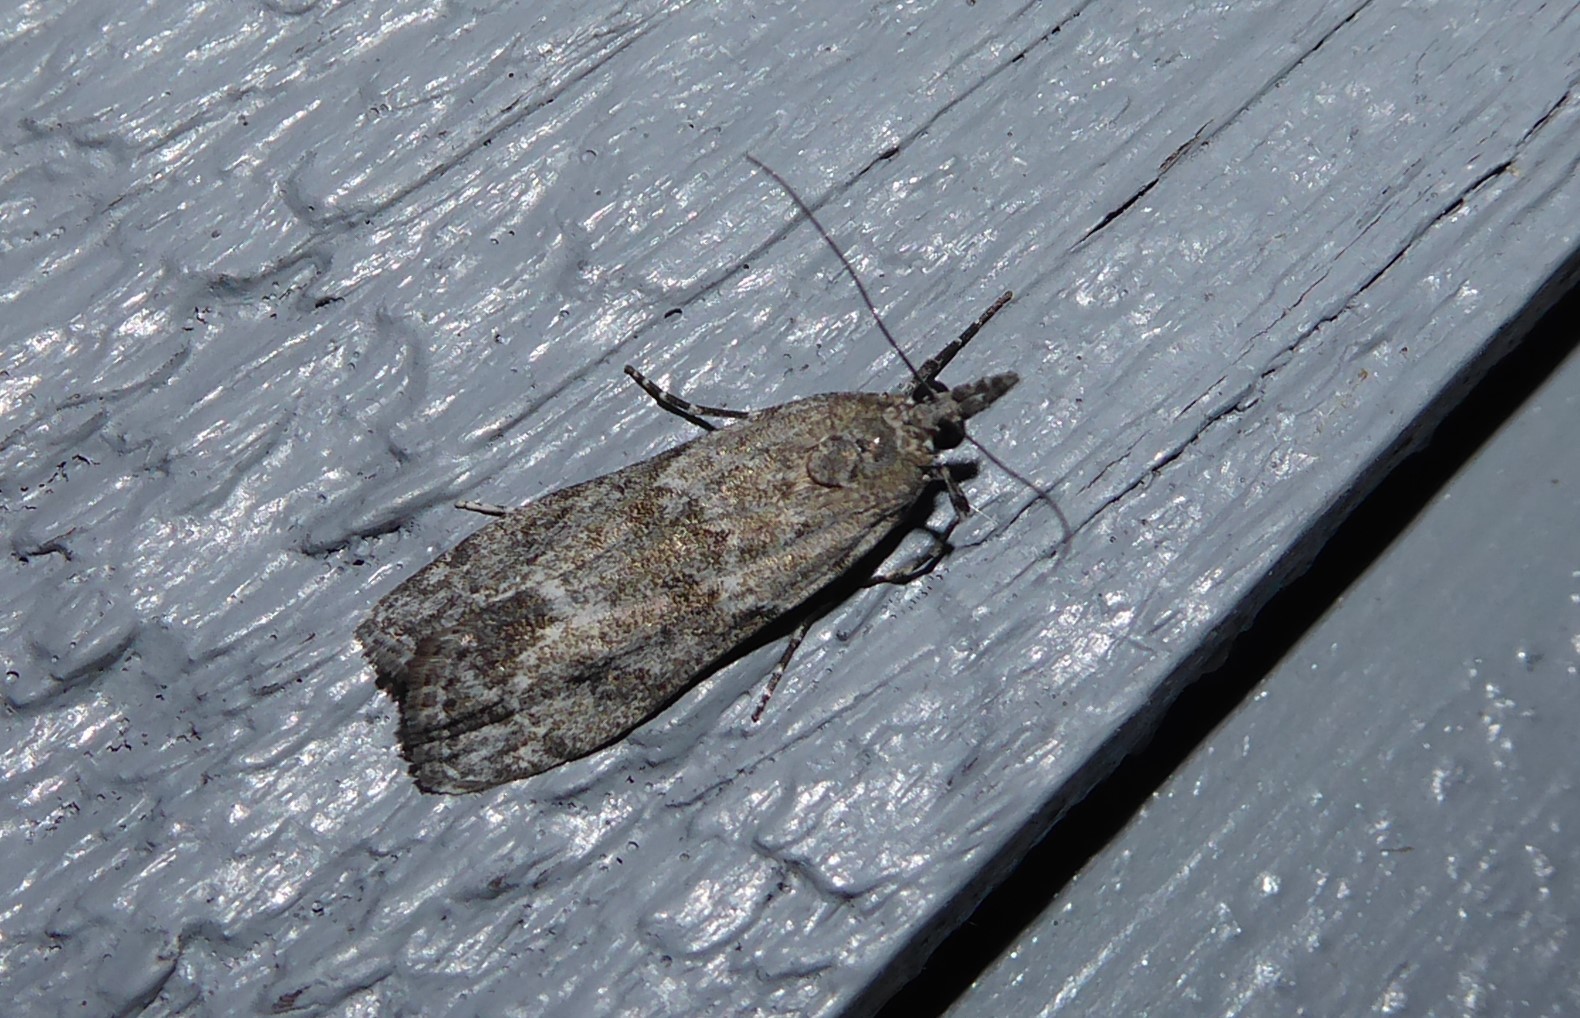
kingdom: Animalia
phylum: Arthropoda
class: Insecta
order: Lepidoptera
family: Crambidae
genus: Eudonia
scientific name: Eudonia rakaiensis
